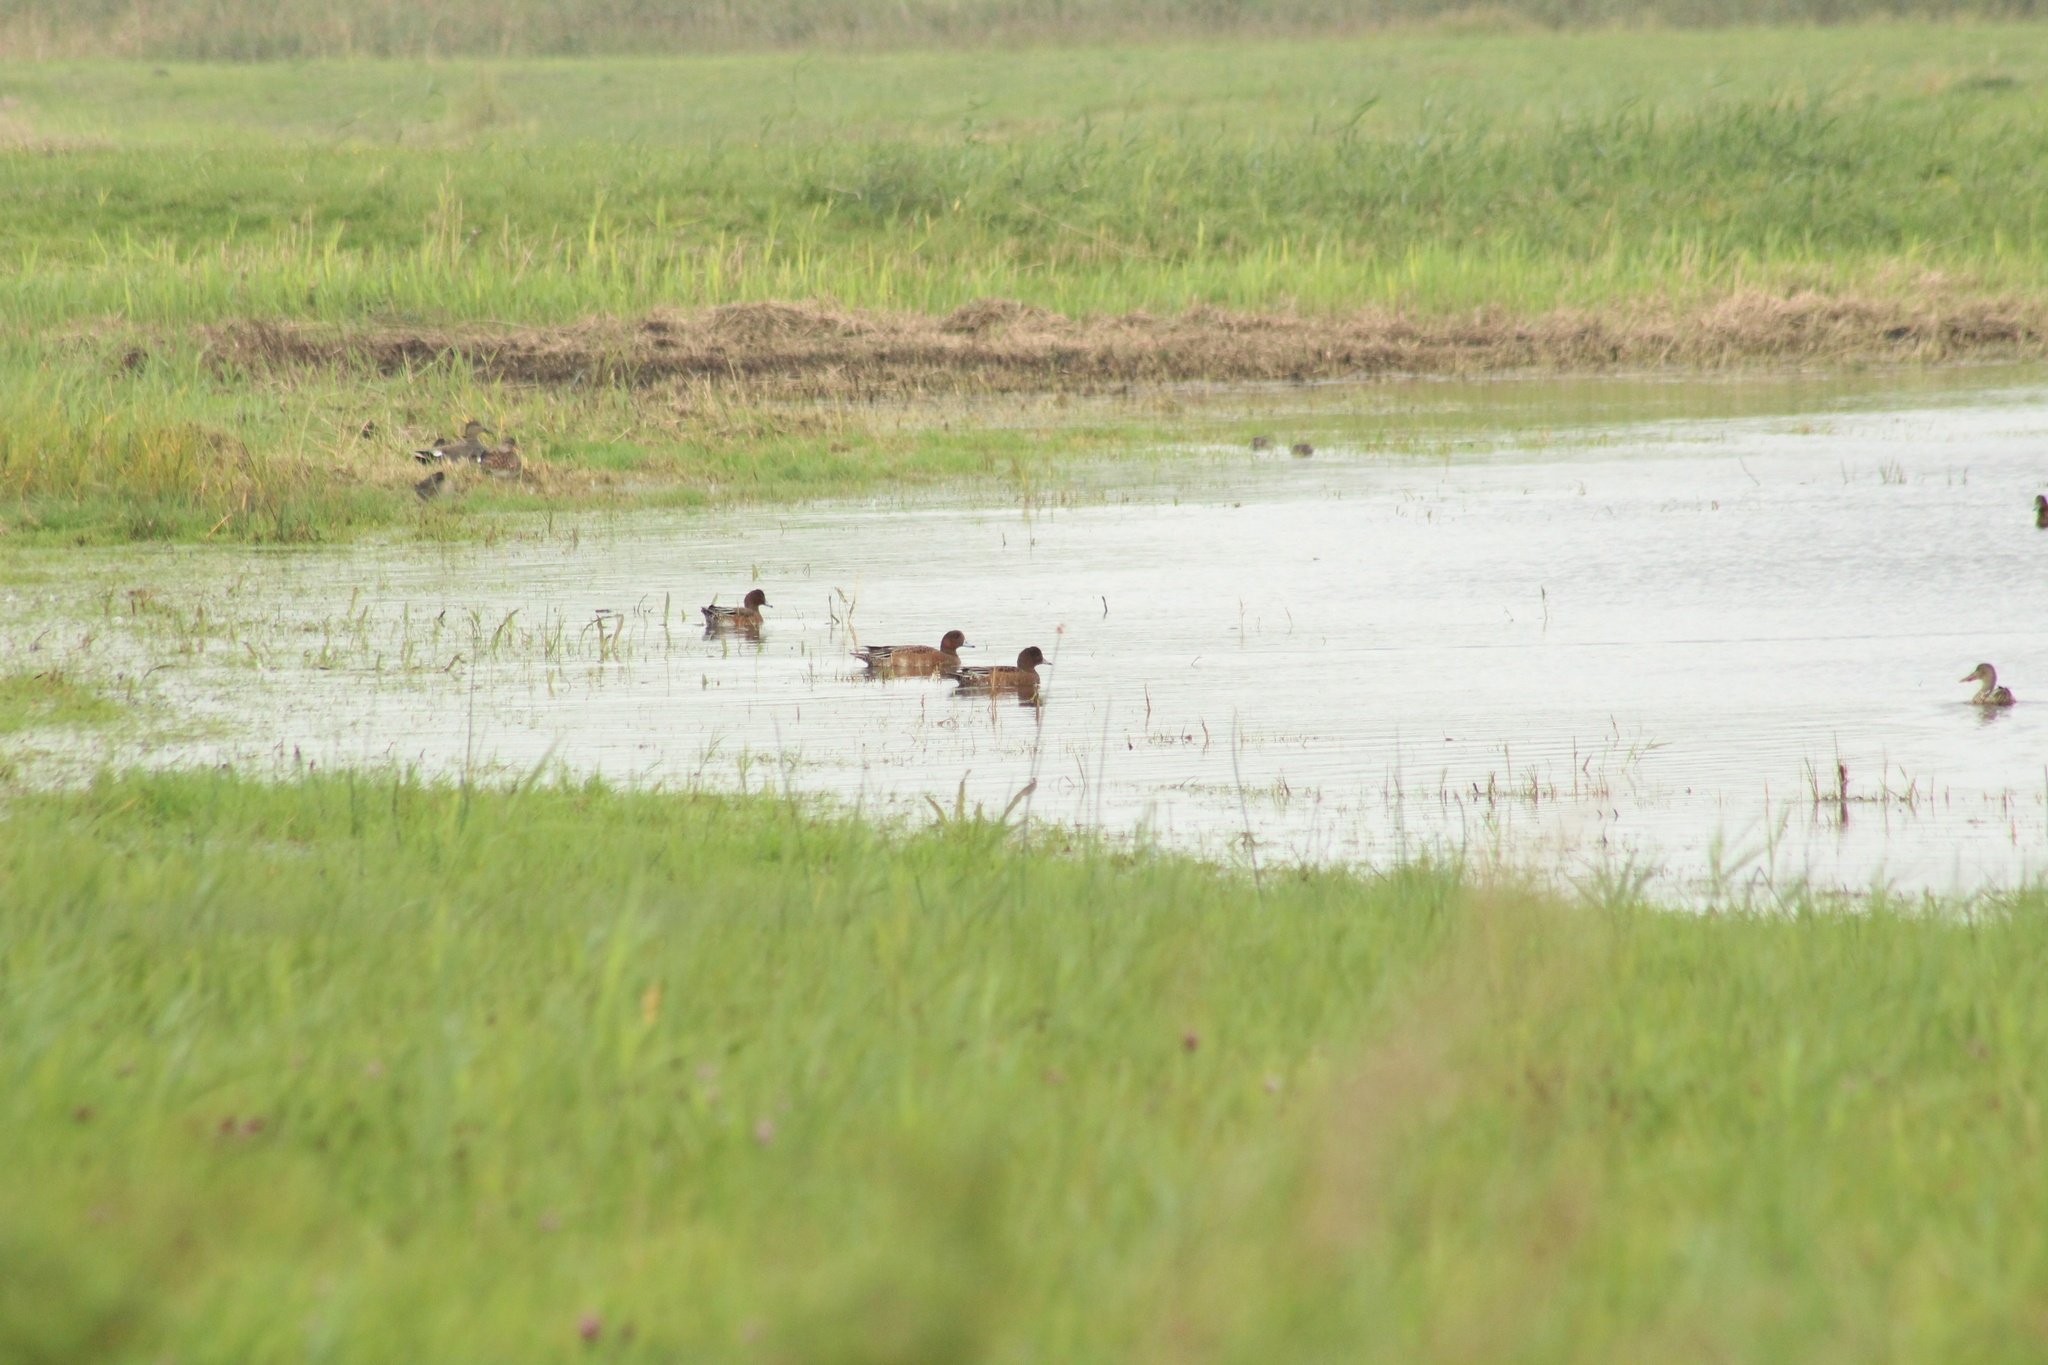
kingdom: Animalia
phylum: Chordata
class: Aves
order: Anseriformes
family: Anatidae
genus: Mareca
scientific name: Mareca penelope
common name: Eurasian wigeon
